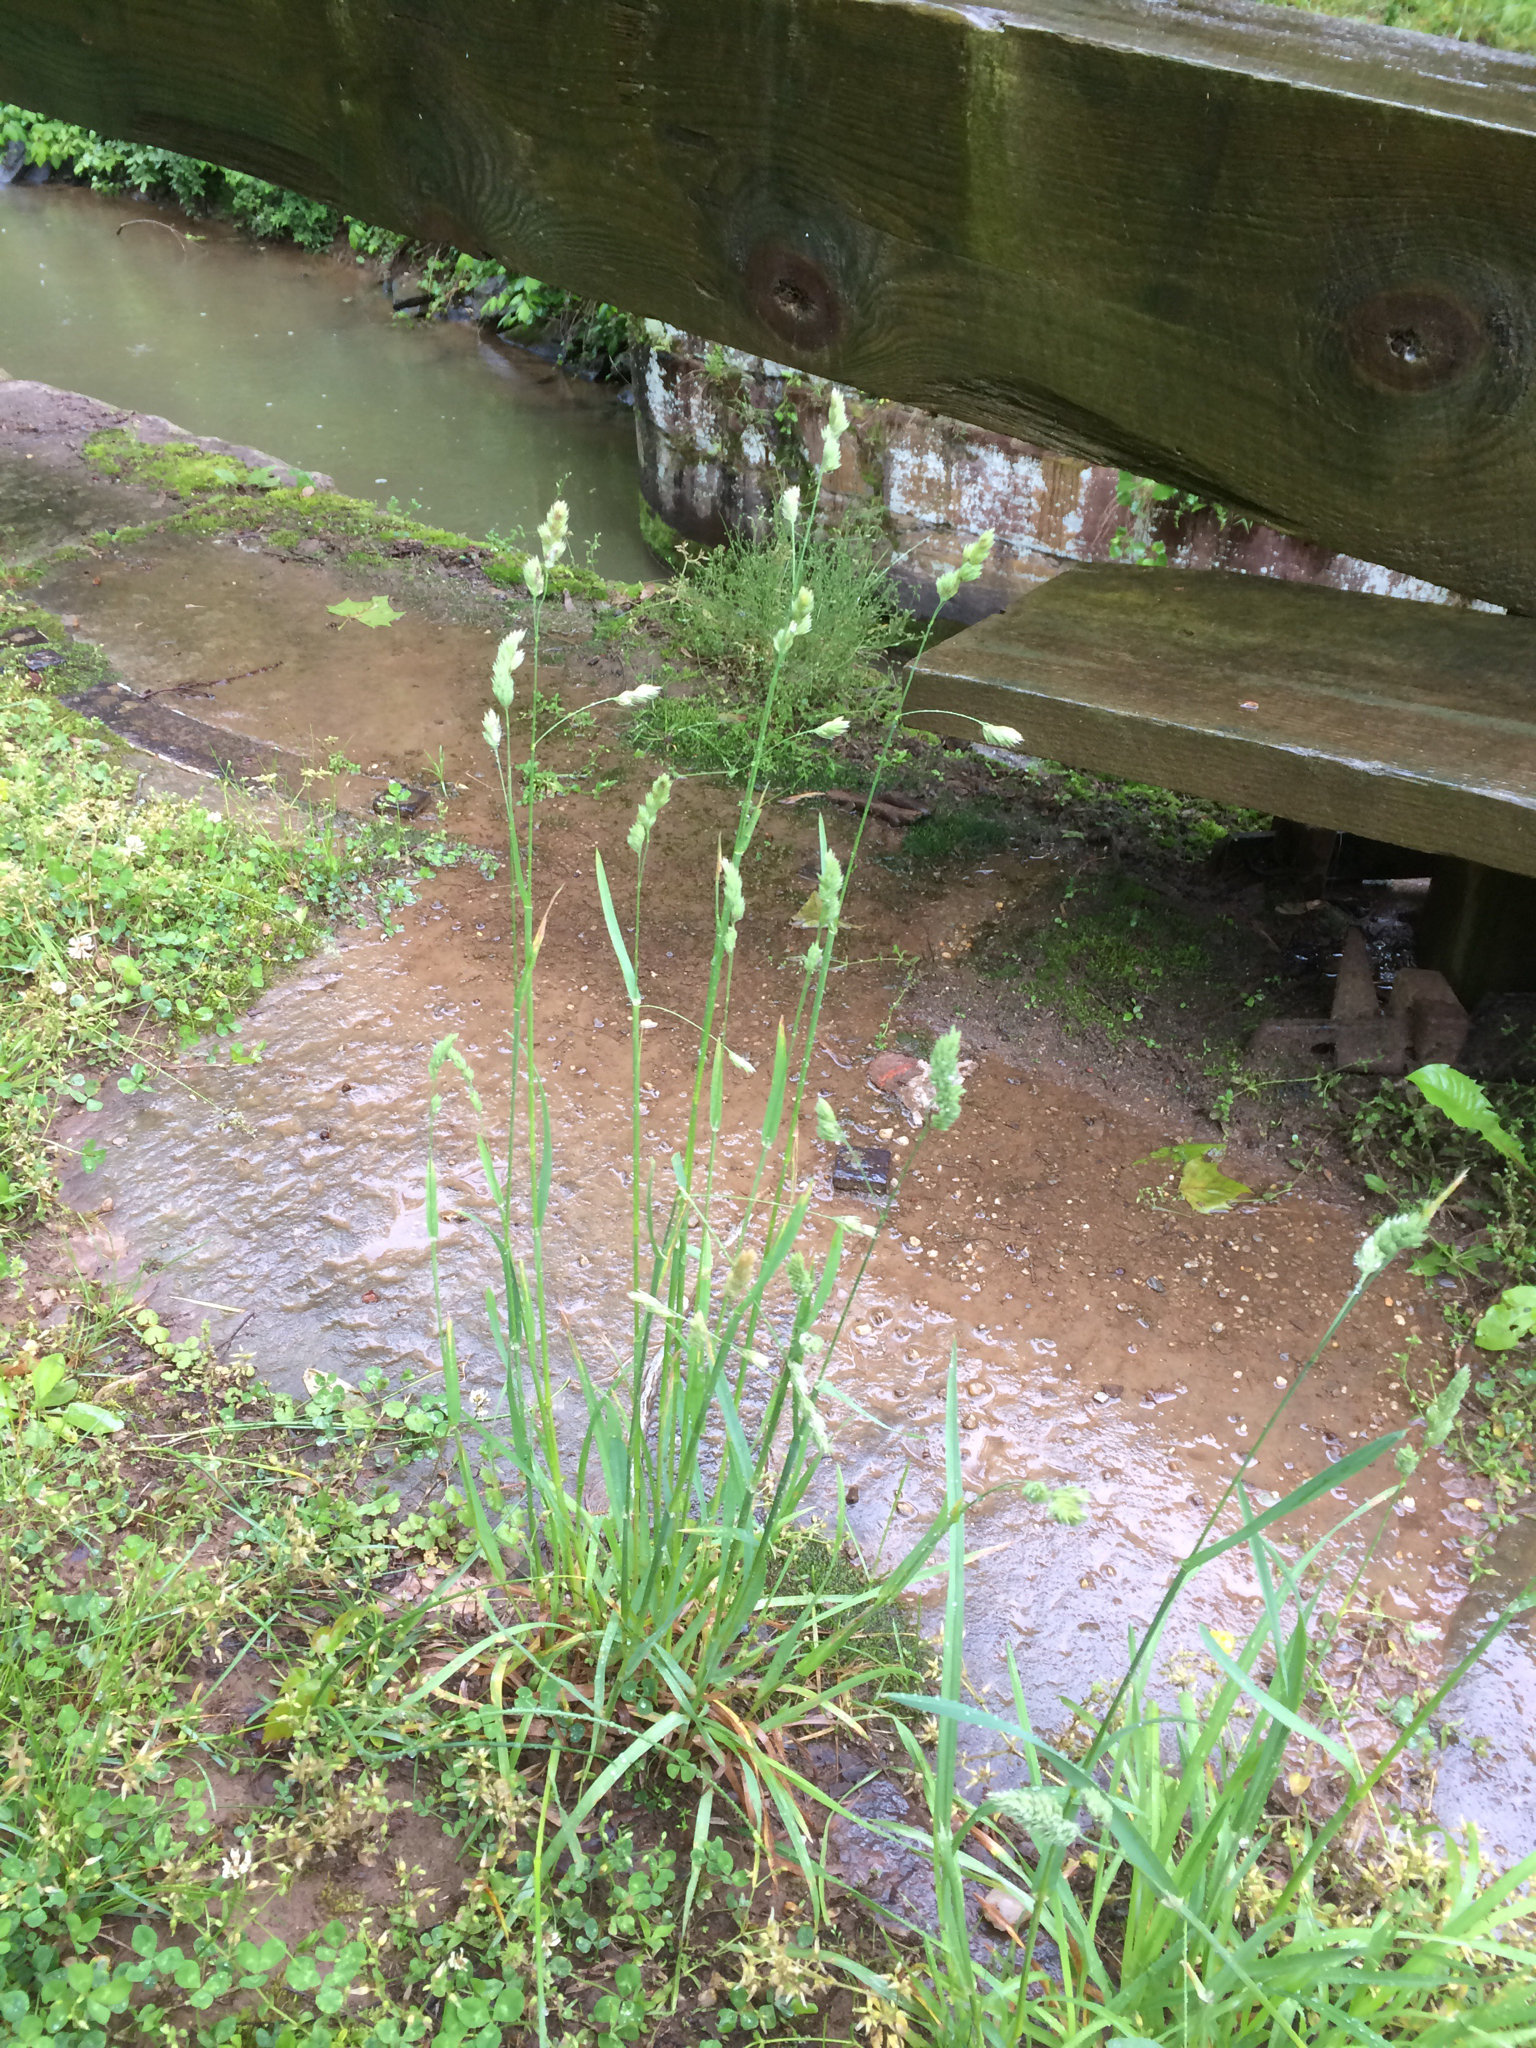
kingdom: Plantae
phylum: Tracheophyta
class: Liliopsida
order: Poales
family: Poaceae
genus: Dactylis
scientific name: Dactylis glomerata
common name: Orchardgrass
